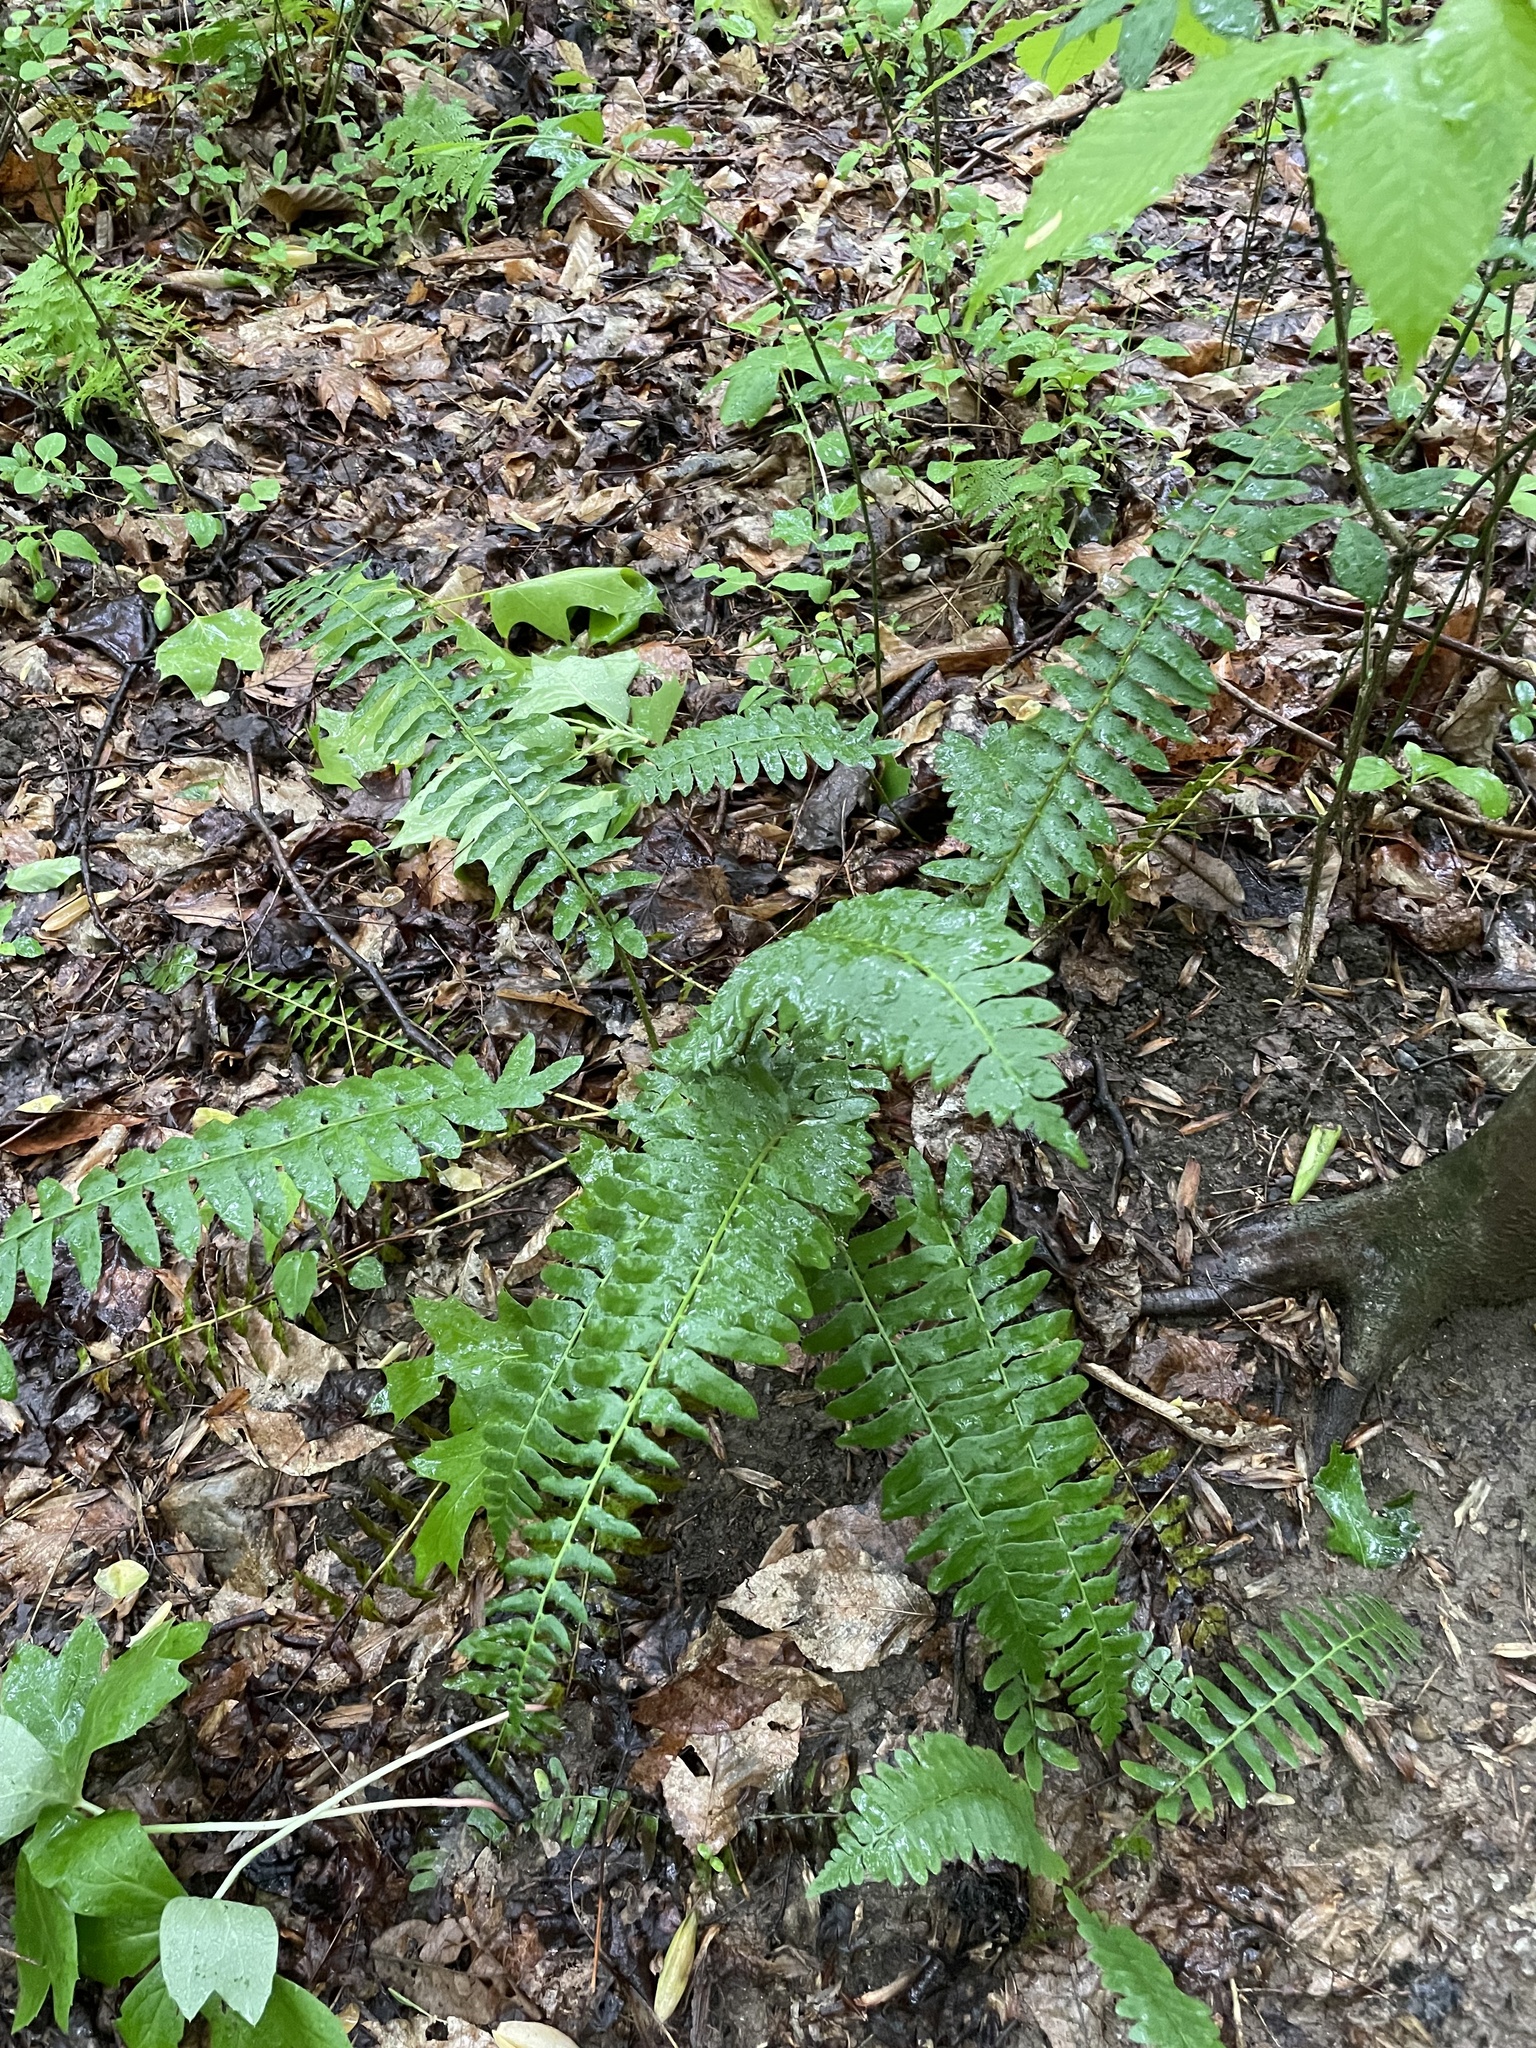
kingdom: Plantae
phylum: Tracheophyta
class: Polypodiopsida
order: Polypodiales
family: Dryopteridaceae
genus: Polystichum
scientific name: Polystichum acrostichoides
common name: Christmas fern
